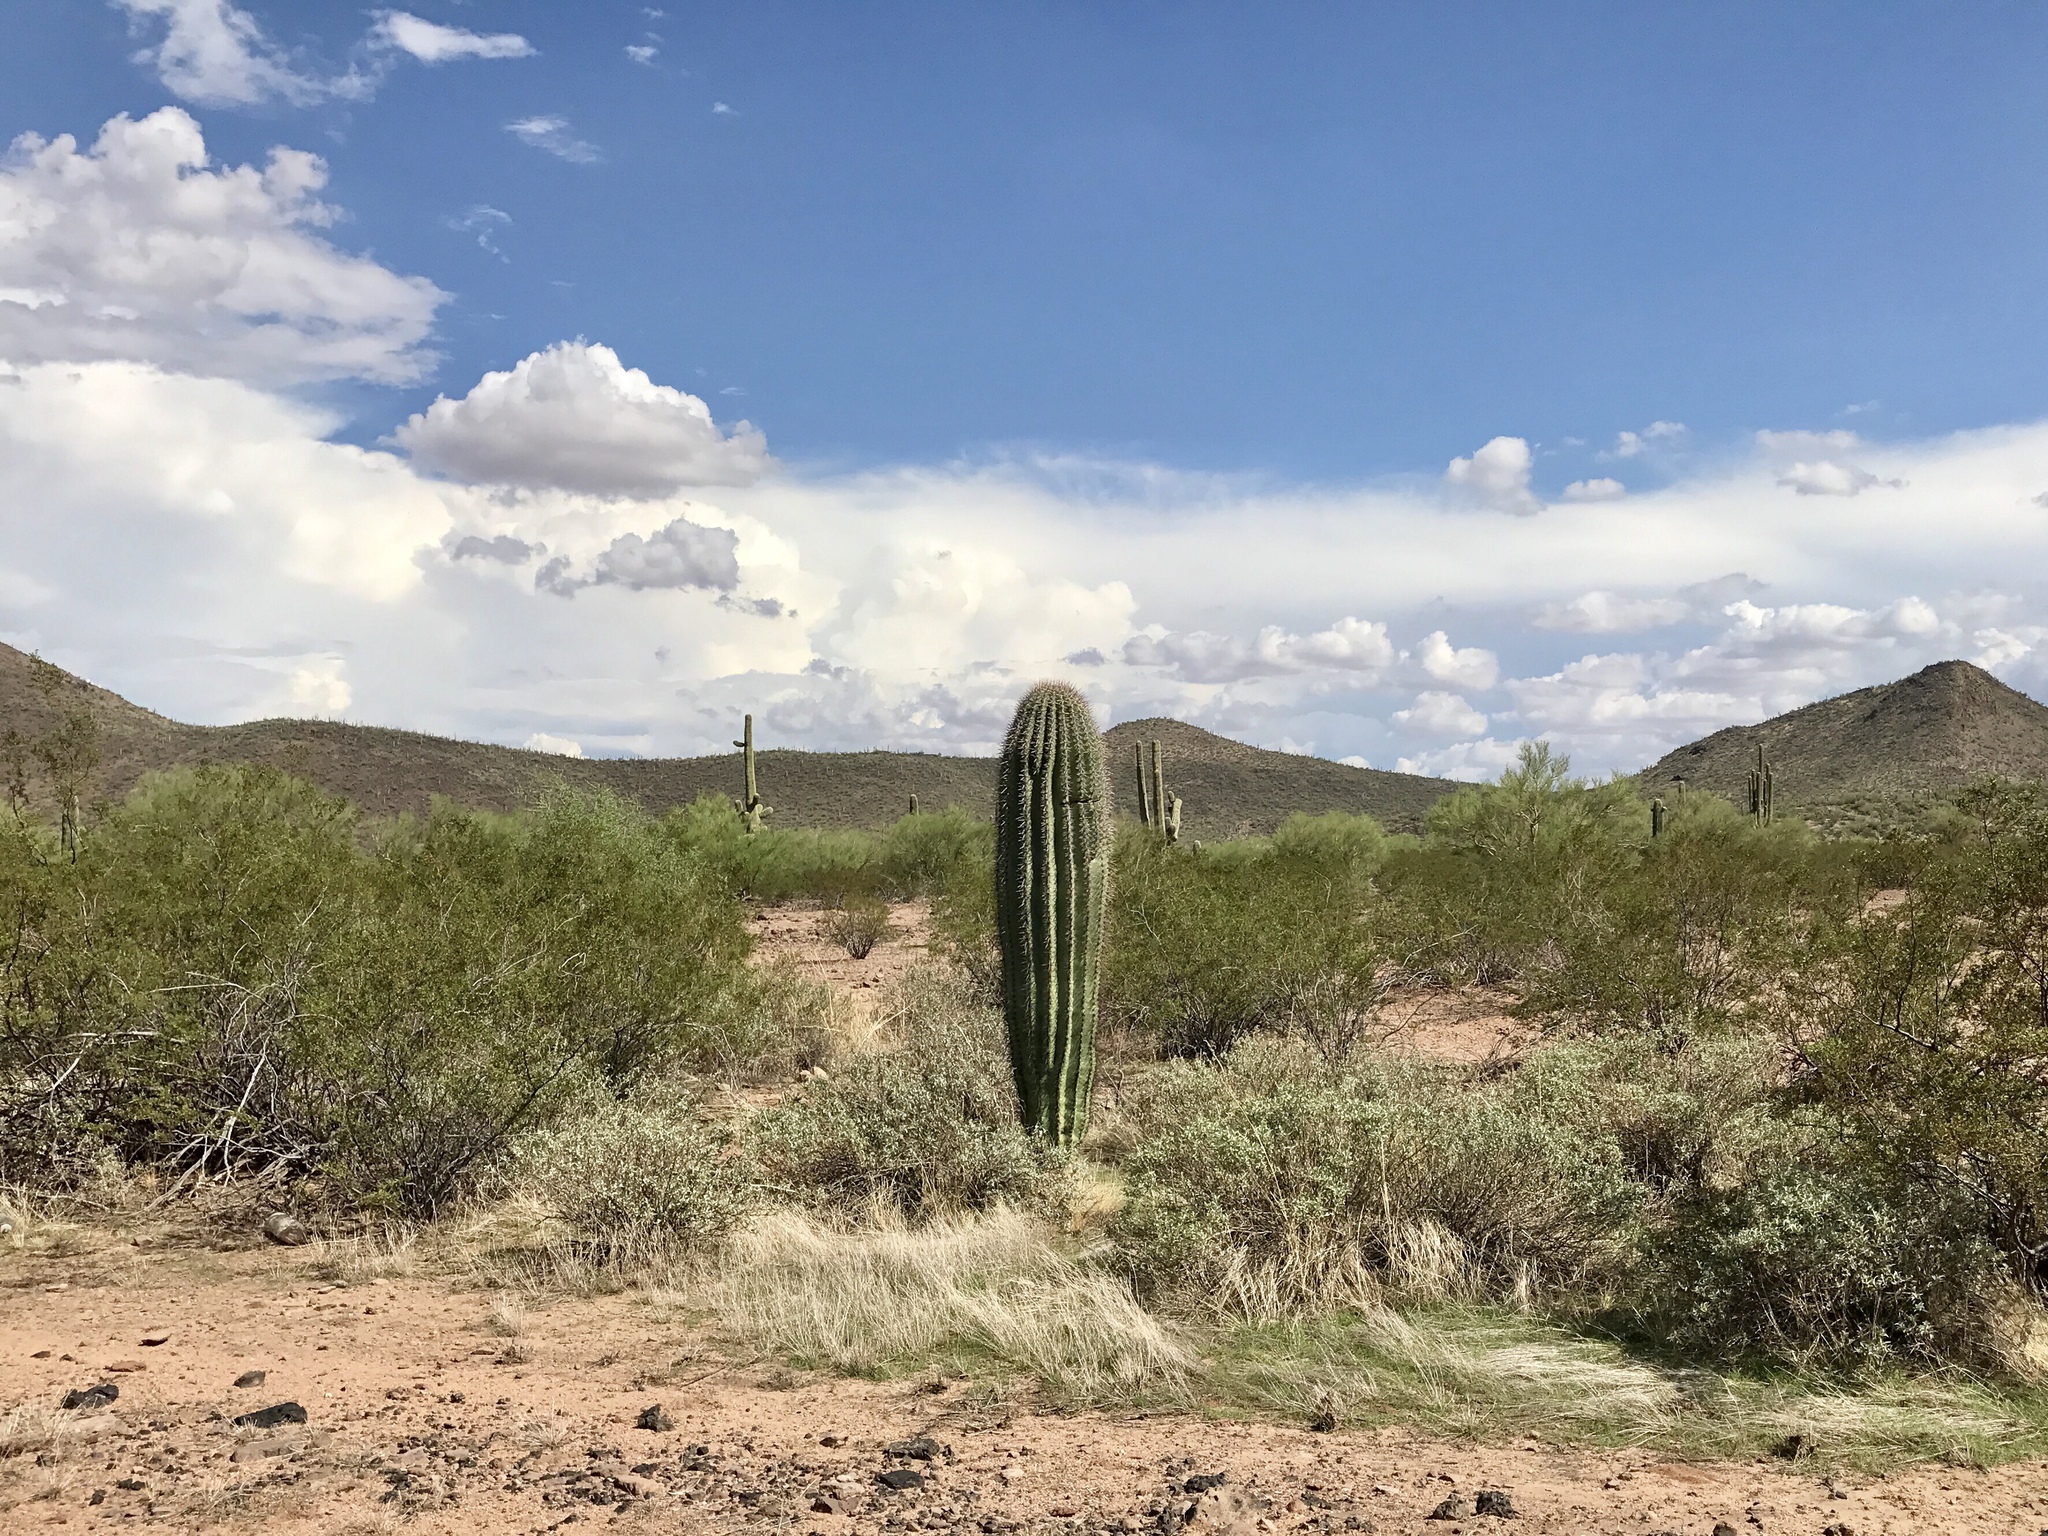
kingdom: Plantae
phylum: Tracheophyta
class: Magnoliopsida
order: Caryophyllales
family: Cactaceae
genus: Carnegiea
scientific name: Carnegiea gigantea
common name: Saguaro
